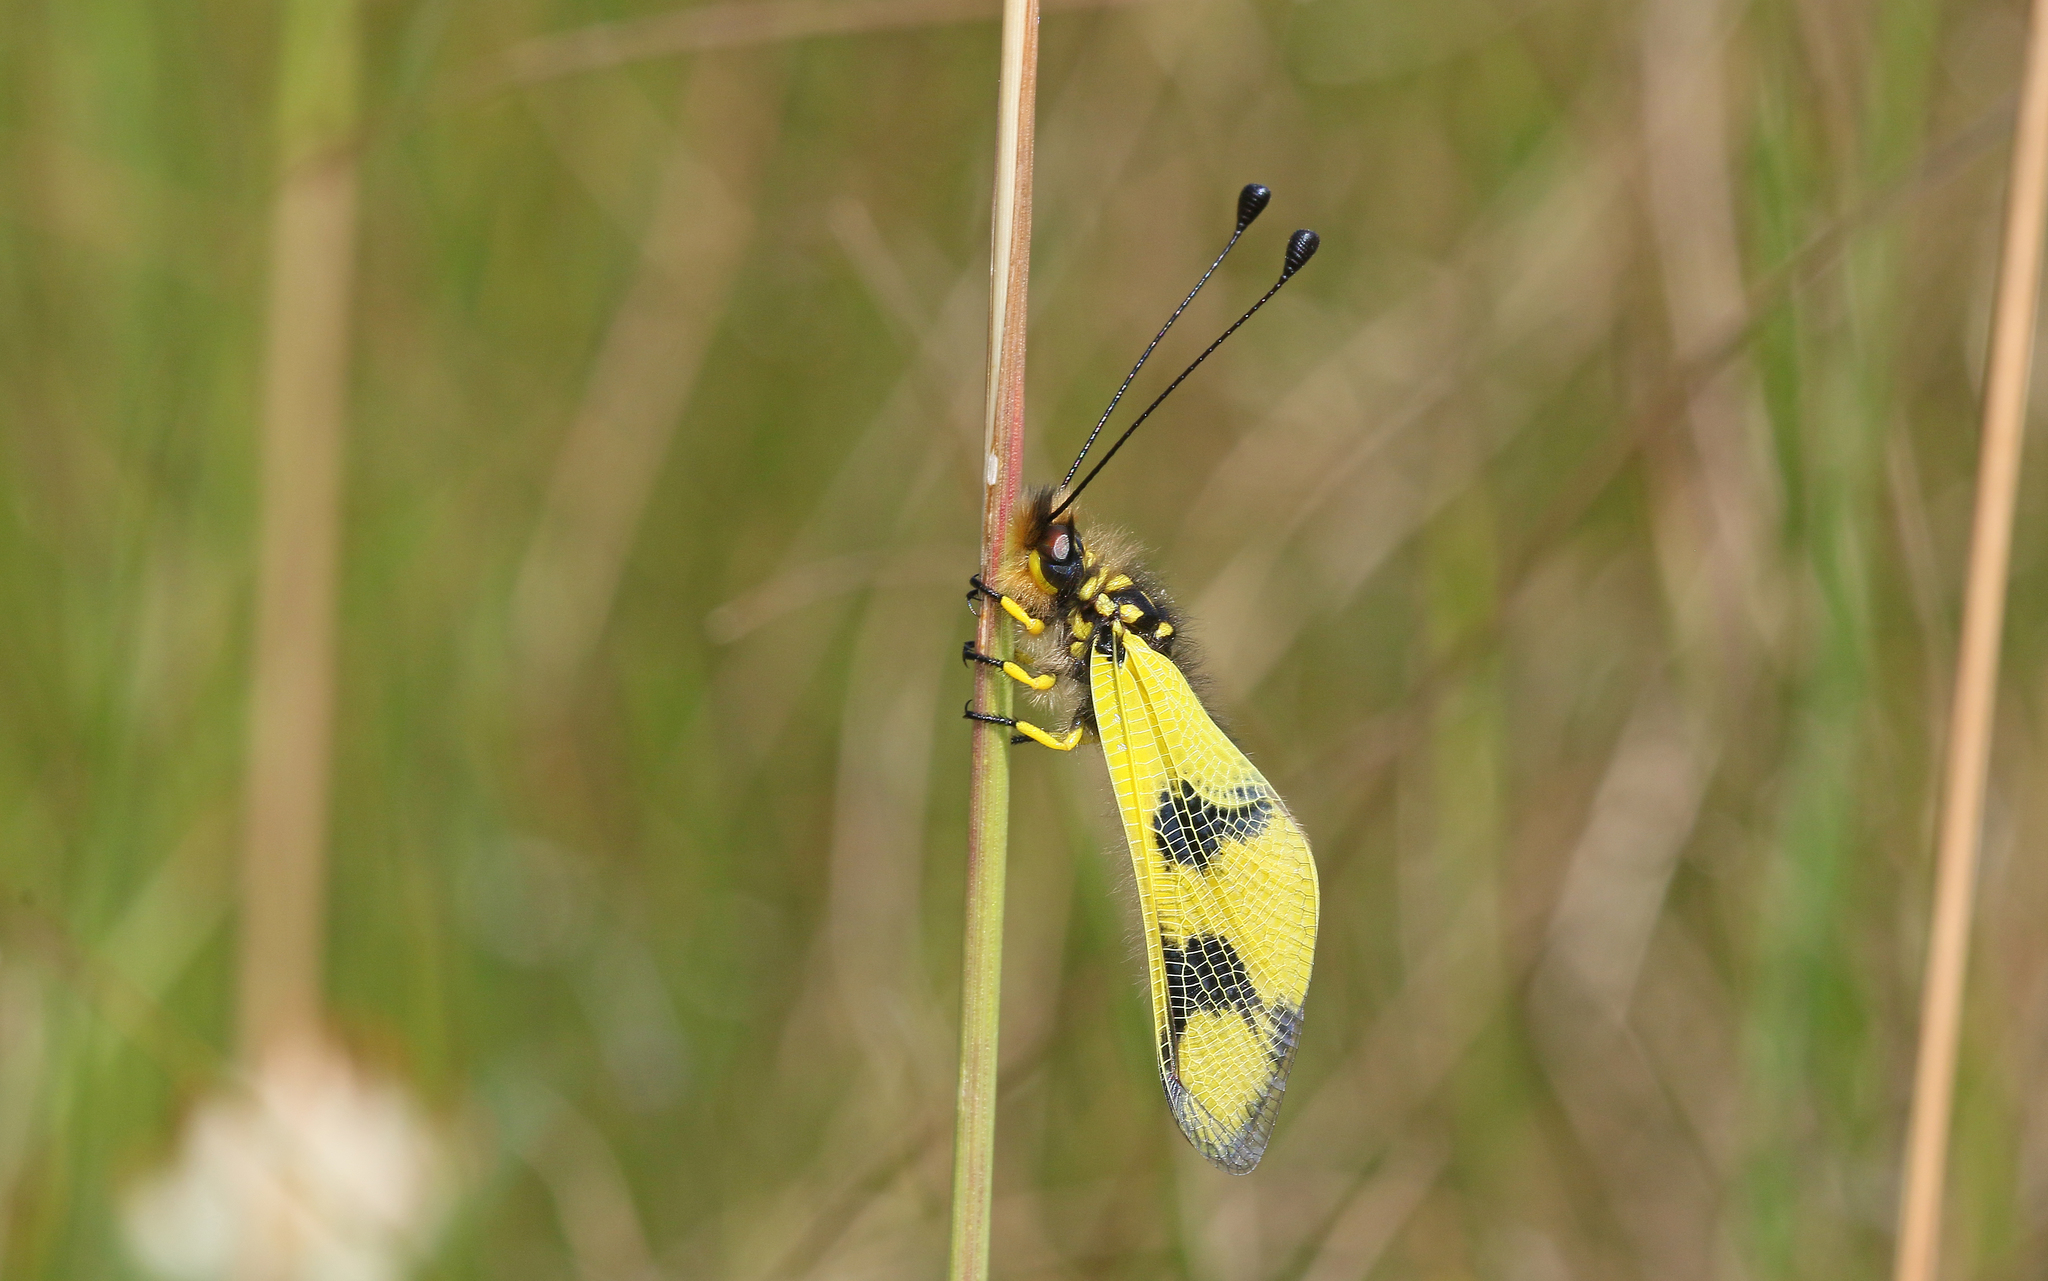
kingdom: Animalia
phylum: Arthropoda
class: Insecta
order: Neuroptera
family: Ascalaphidae
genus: Libelloides
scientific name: Libelloides macaronius
